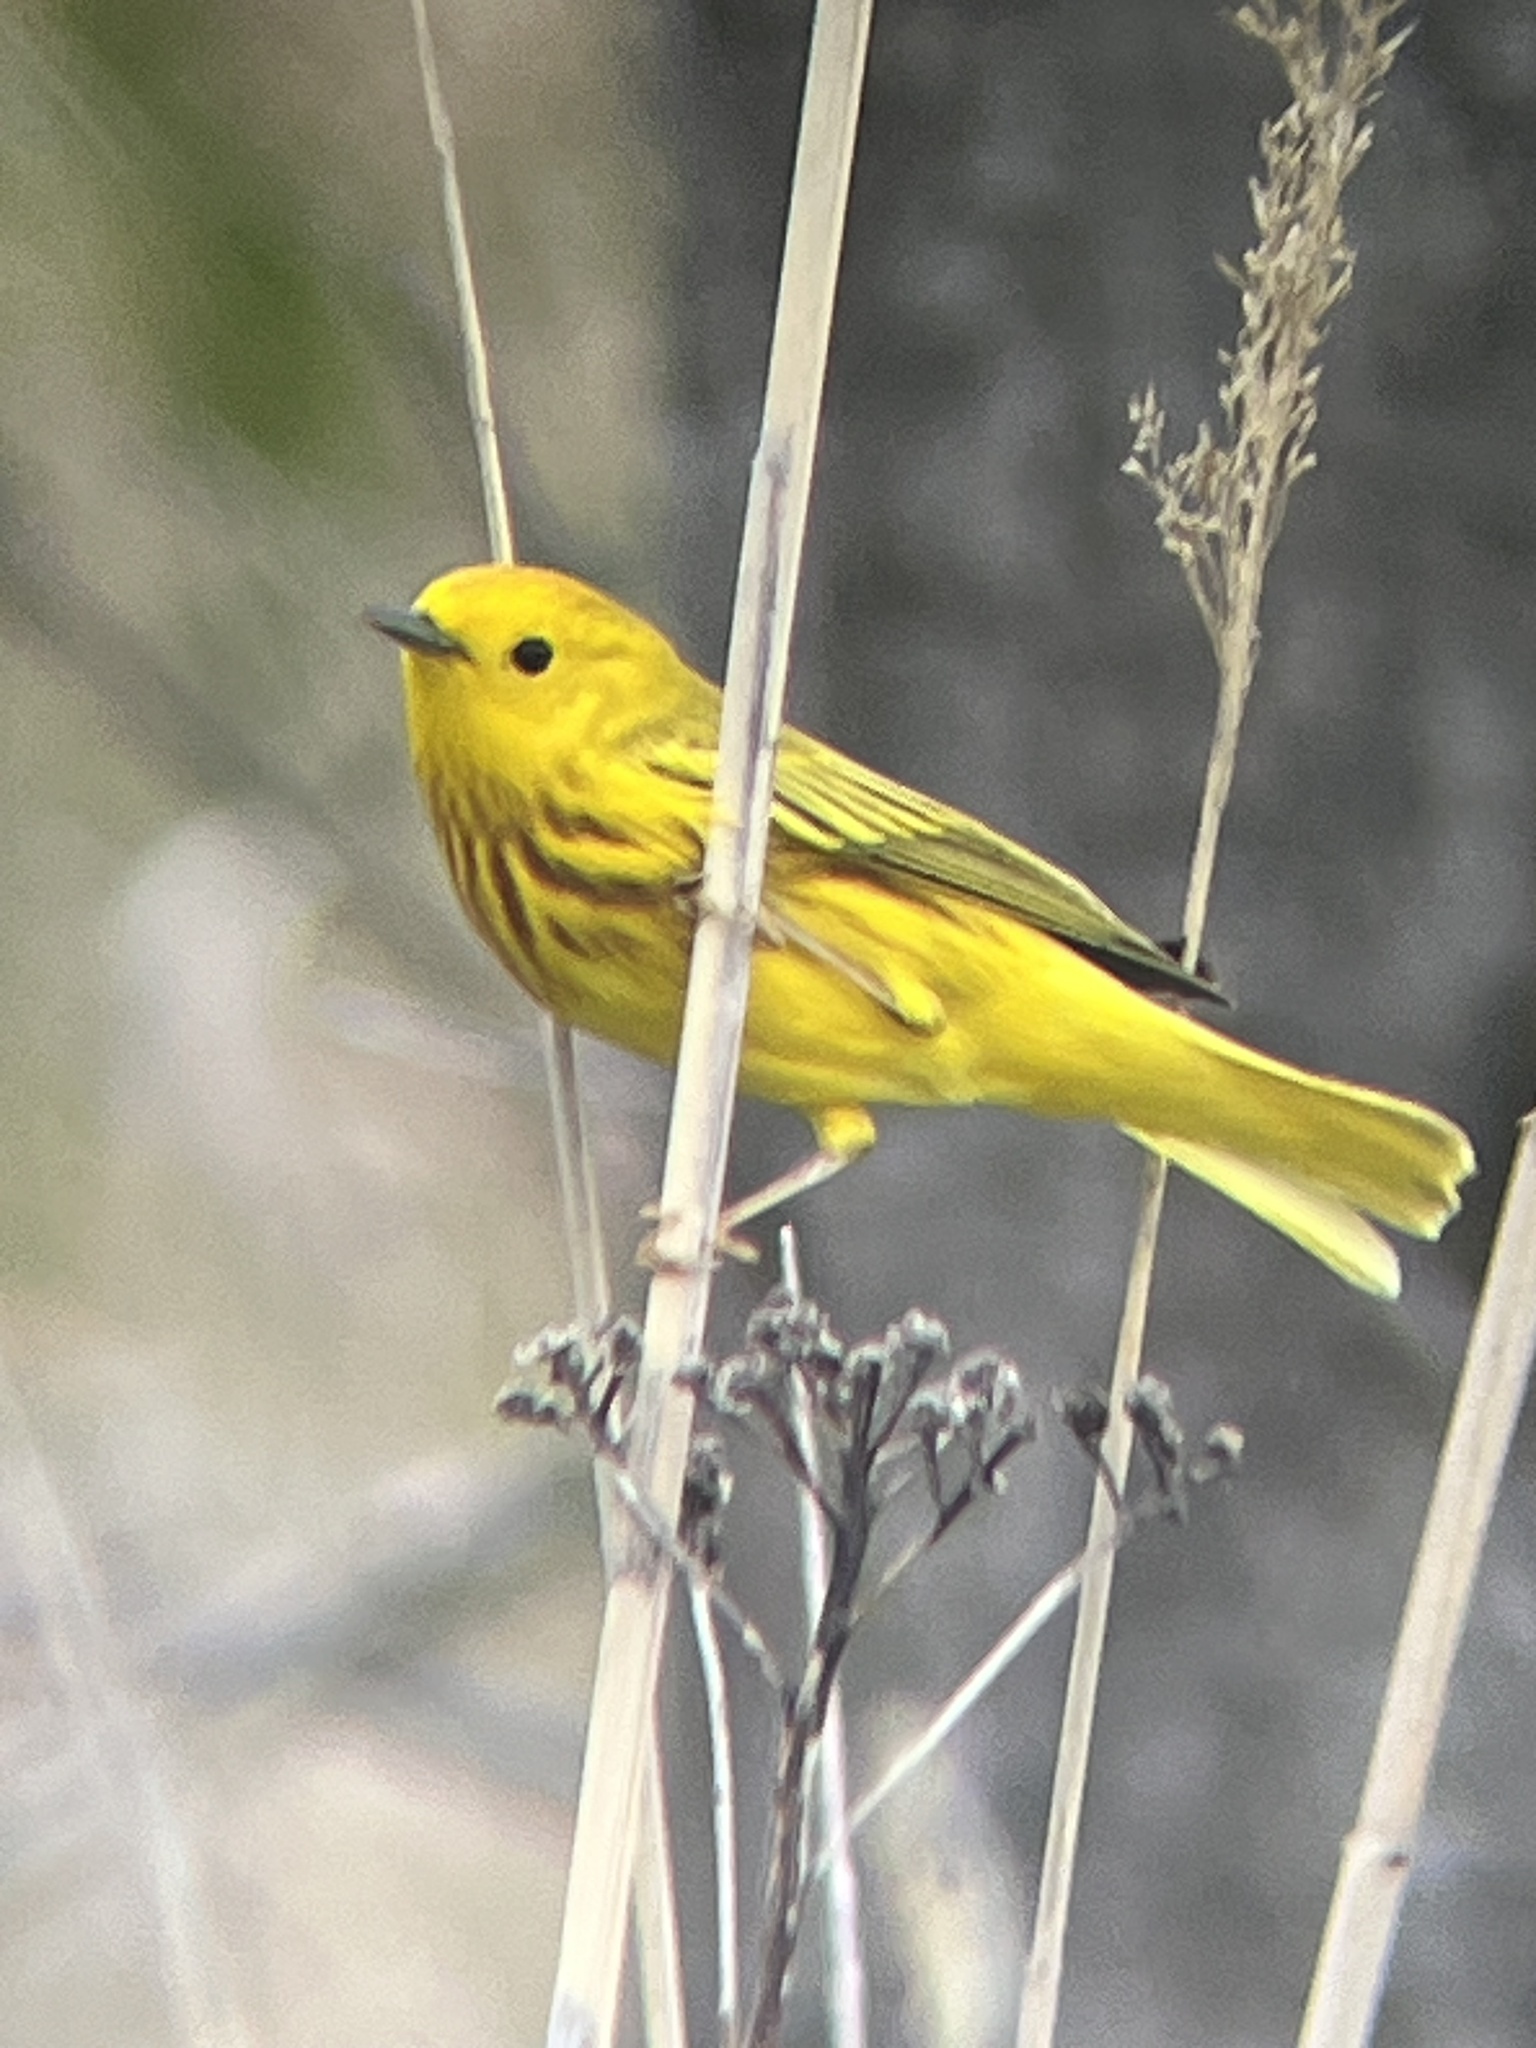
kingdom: Animalia
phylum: Chordata
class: Aves
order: Passeriformes
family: Parulidae
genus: Setophaga
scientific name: Setophaga petechia
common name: Yellow warbler
